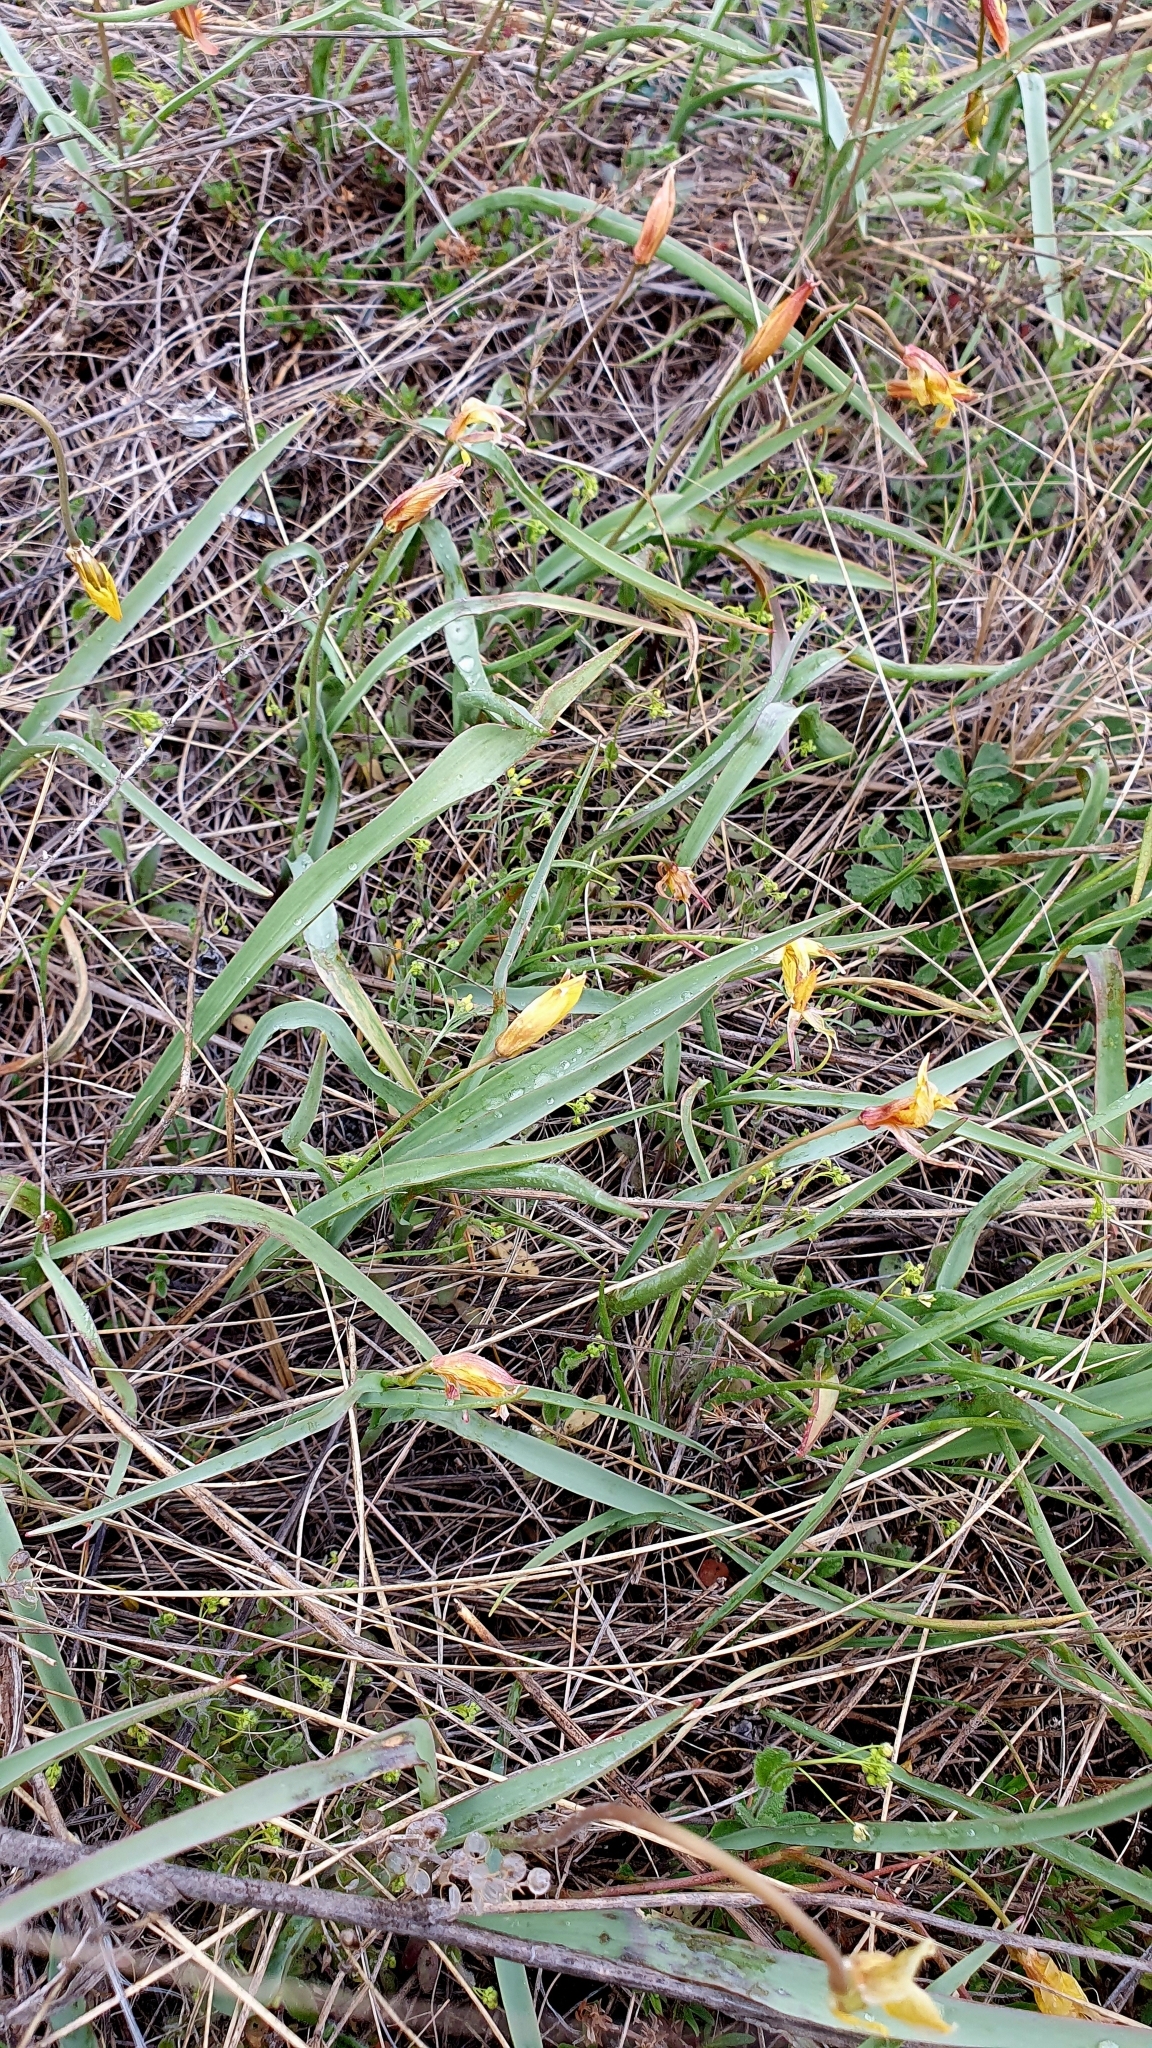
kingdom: Plantae
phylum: Tracheophyta
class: Liliopsida
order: Liliales
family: Liliaceae
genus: Tulipa
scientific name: Tulipa sylvestris
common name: Wild tulip
